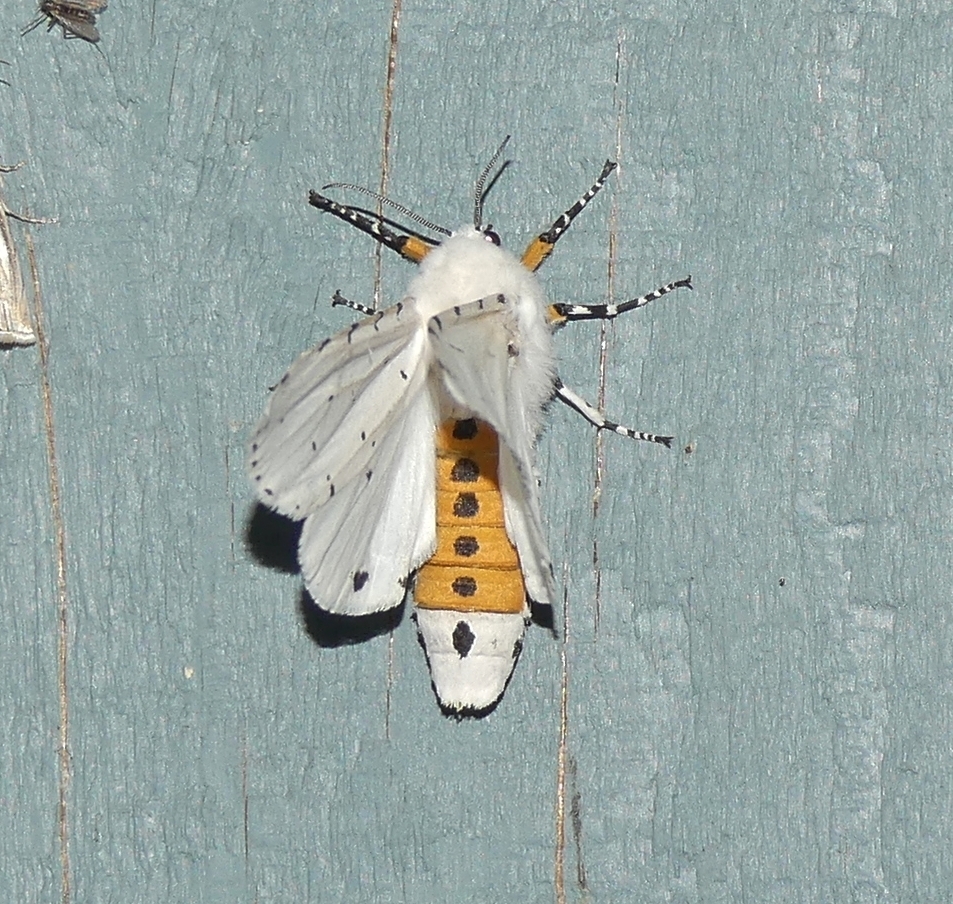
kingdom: Animalia
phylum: Arthropoda
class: Insecta
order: Lepidoptera
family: Erebidae
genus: Estigmene
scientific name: Estigmene acrea
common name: Salt marsh moth
